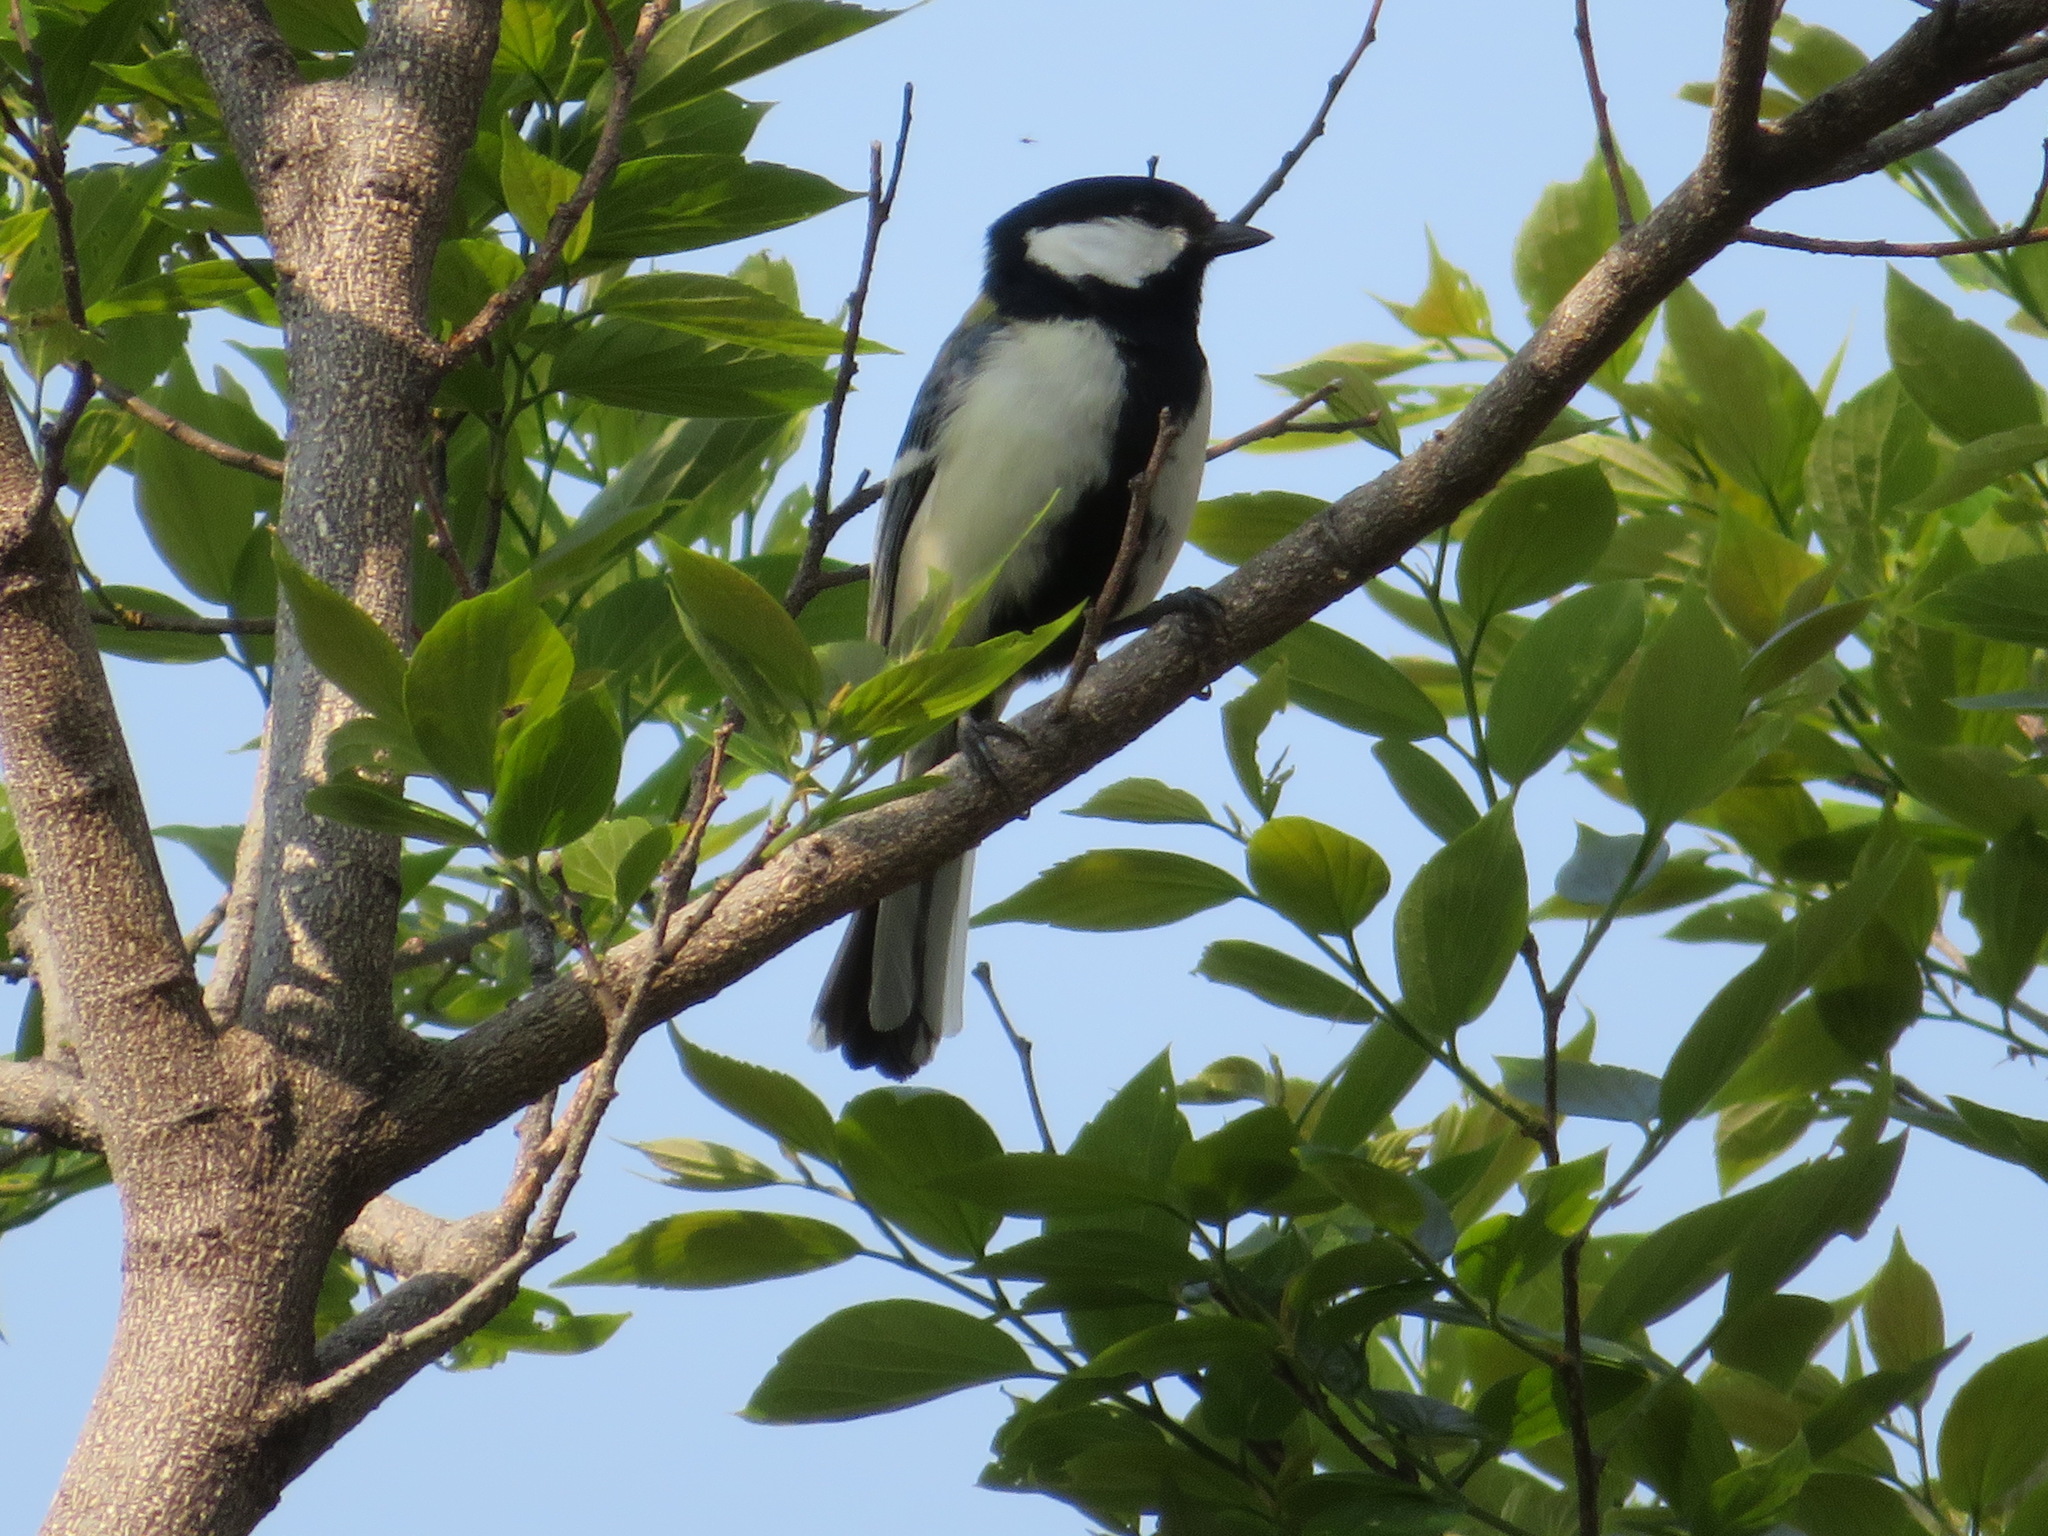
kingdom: Animalia
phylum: Chordata
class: Aves
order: Passeriformes
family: Paridae
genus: Parus
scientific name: Parus minor
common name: Japanese tit
